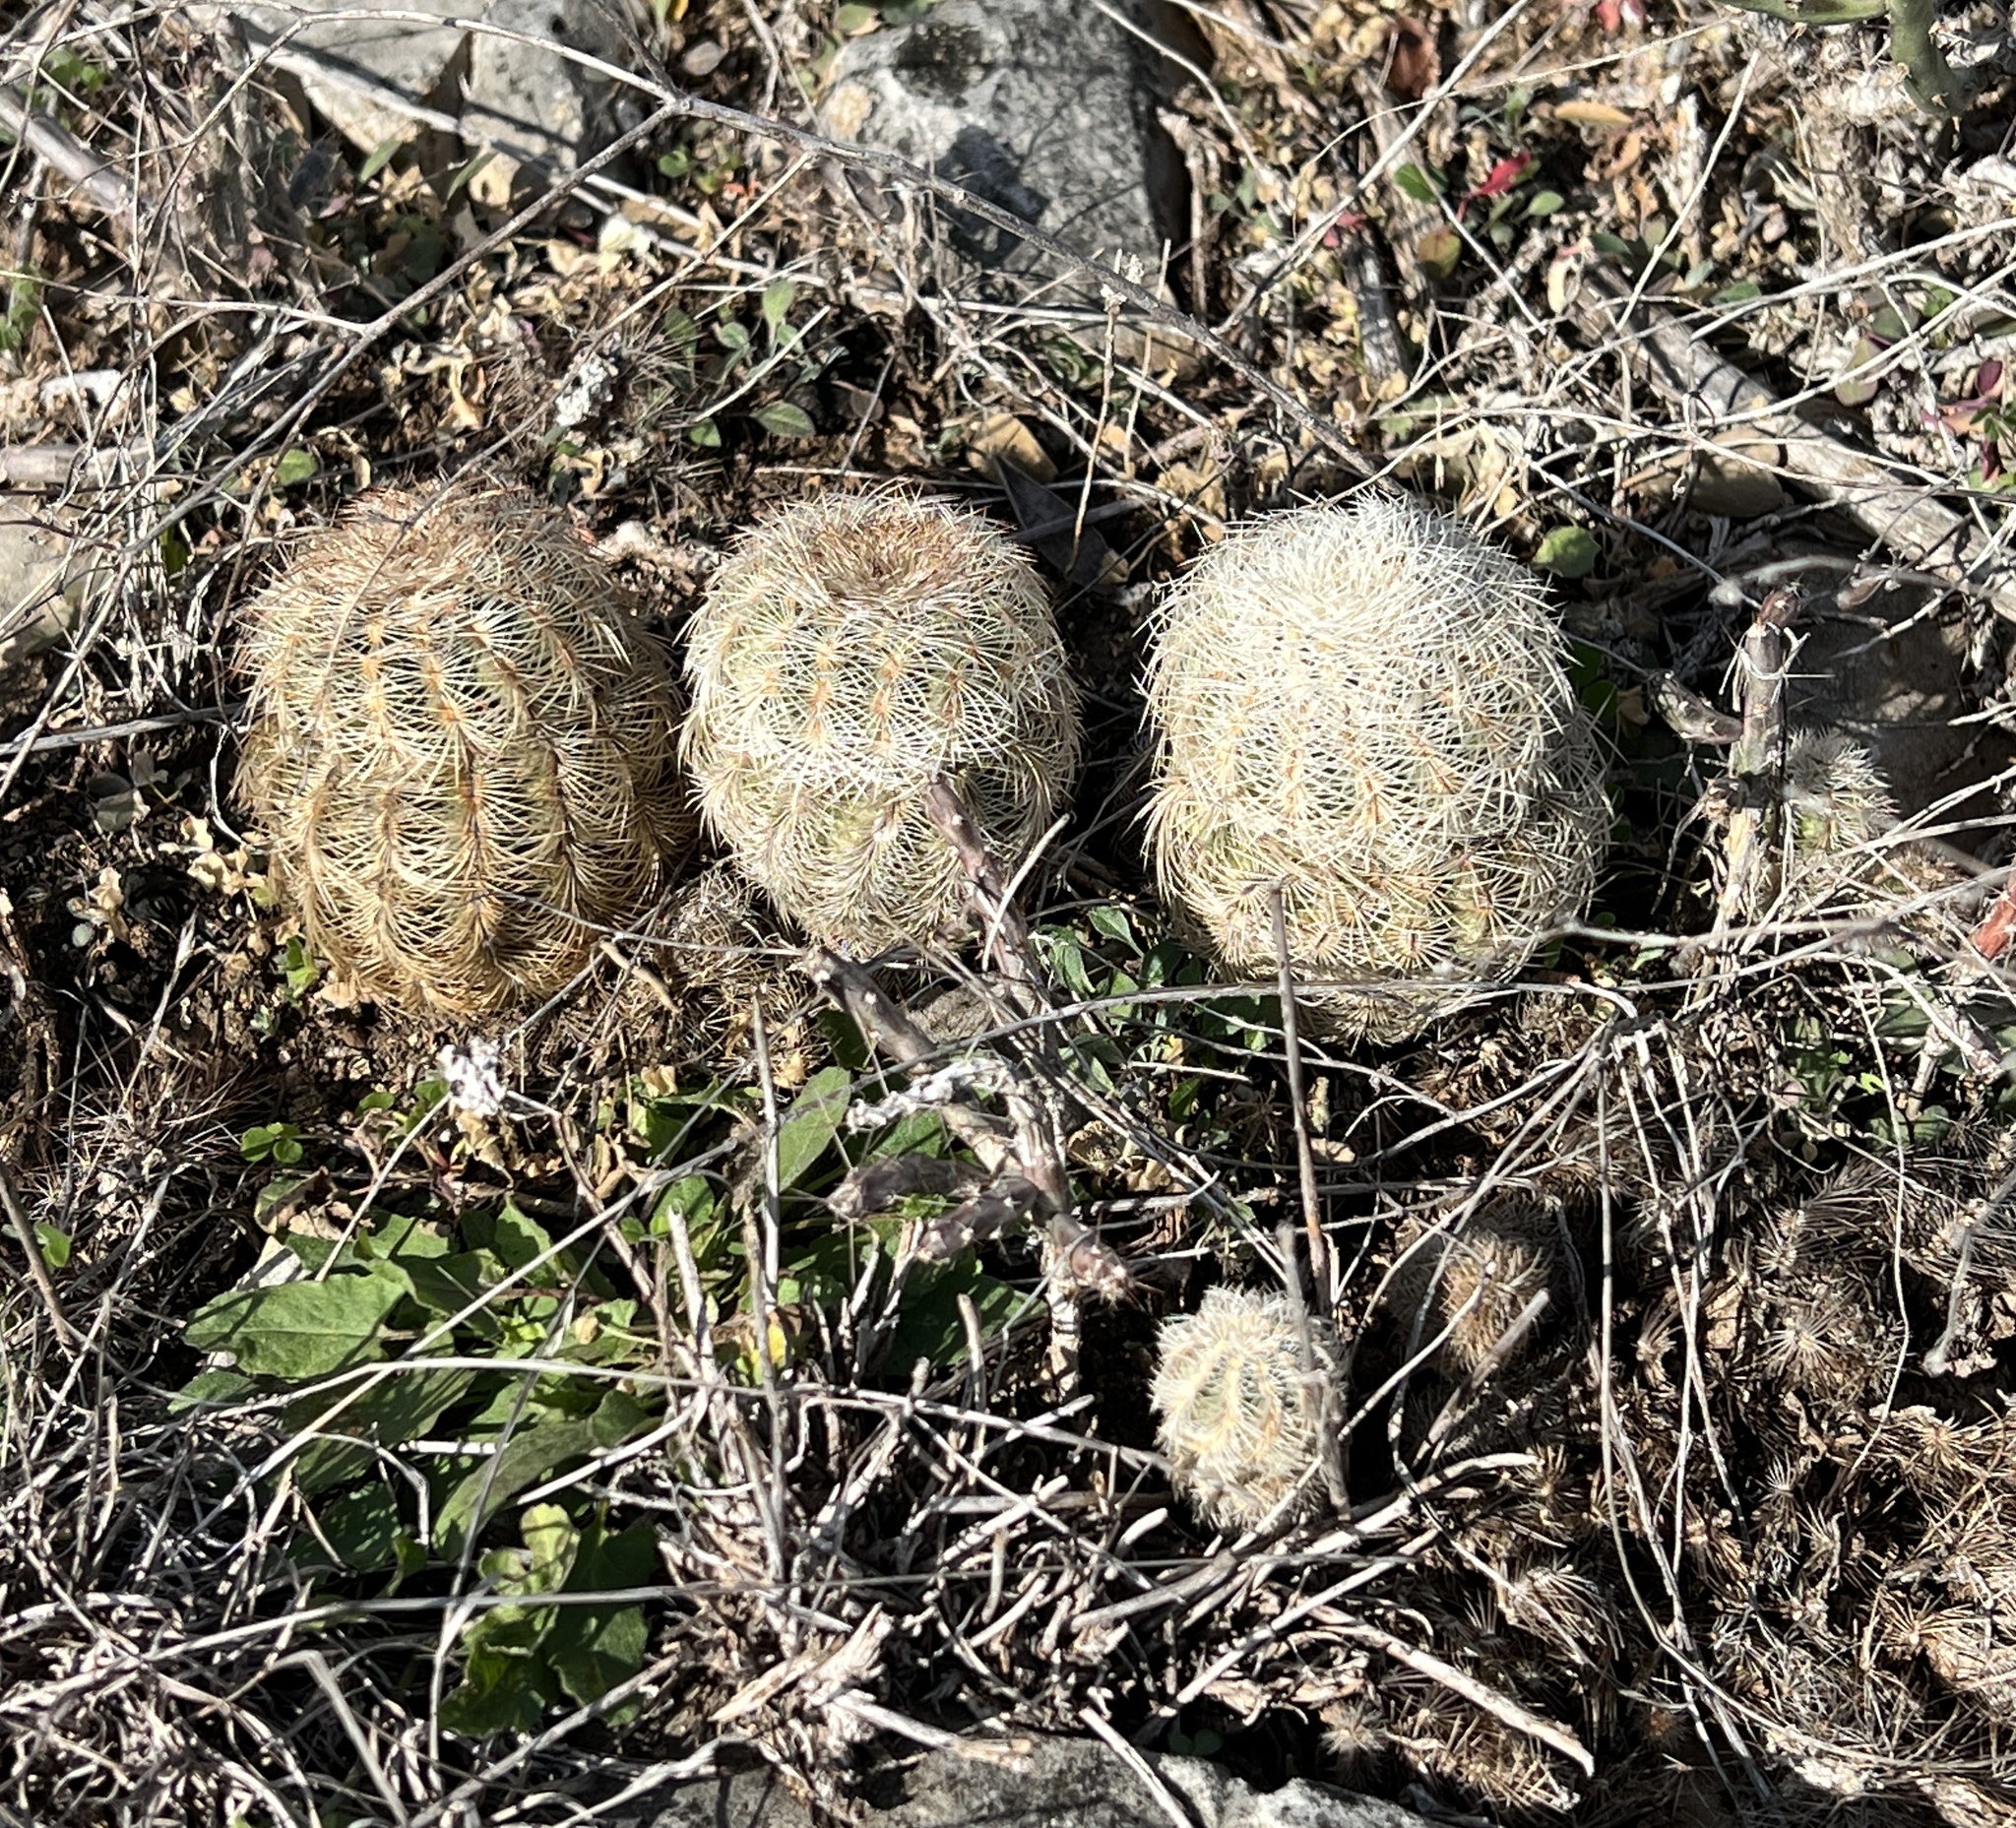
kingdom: Plantae
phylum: Tracheophyta
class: Magnoliopsida
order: Caryophyllales
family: Cactaceae
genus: Echinocereus
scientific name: Echinocereus reichenbachii
